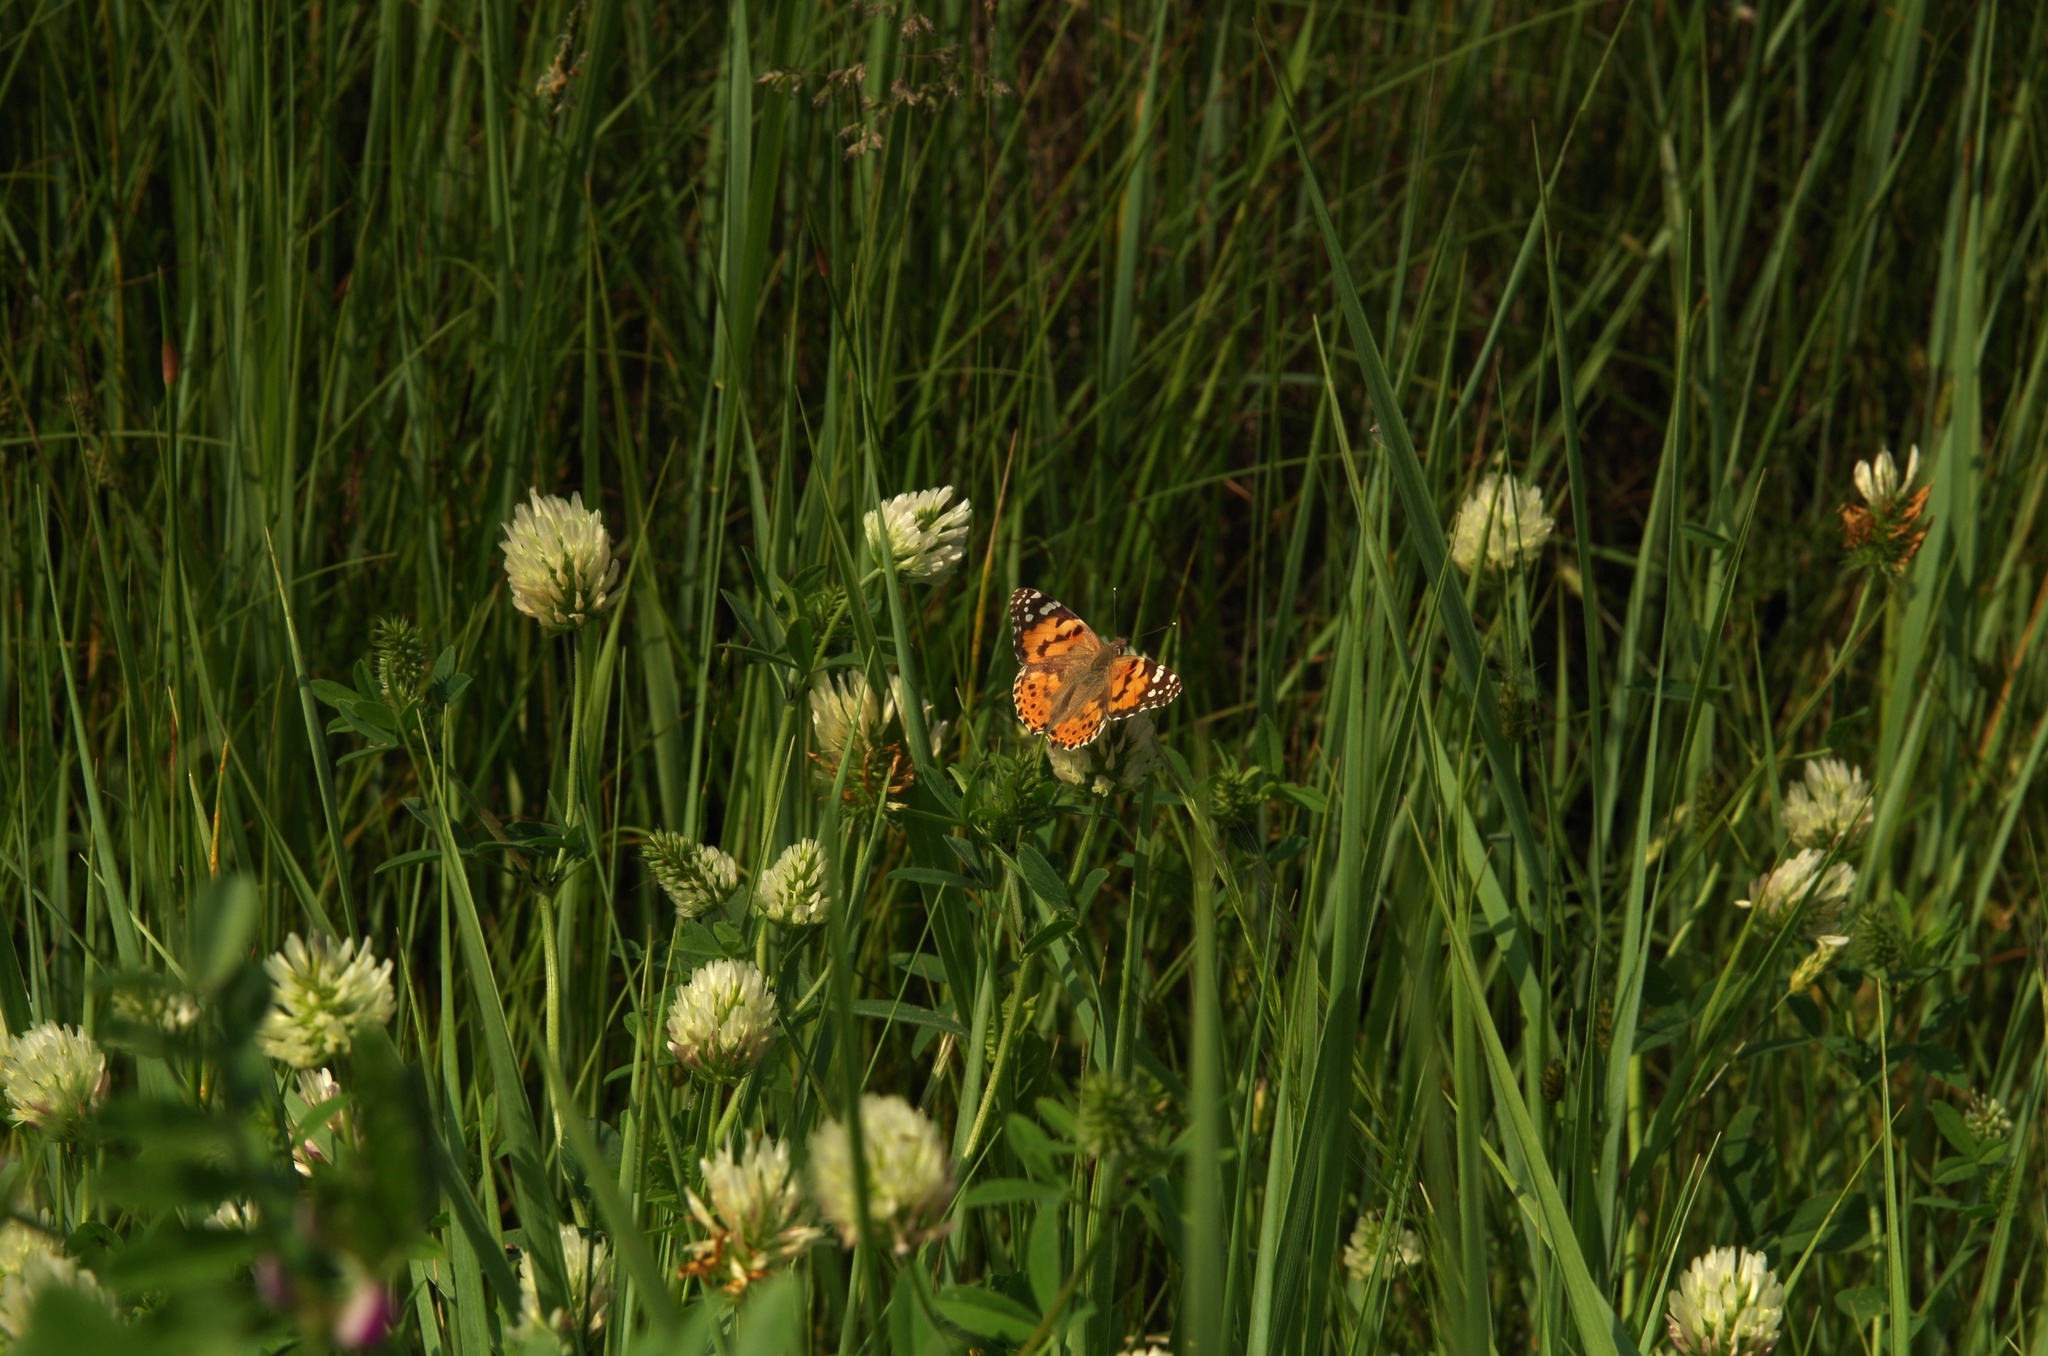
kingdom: Animalia
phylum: Arthropoda
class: Insecta
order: Lepidoptera
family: Nymphalidae
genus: Vanessa
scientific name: Vanessa cardui
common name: Painted lady
